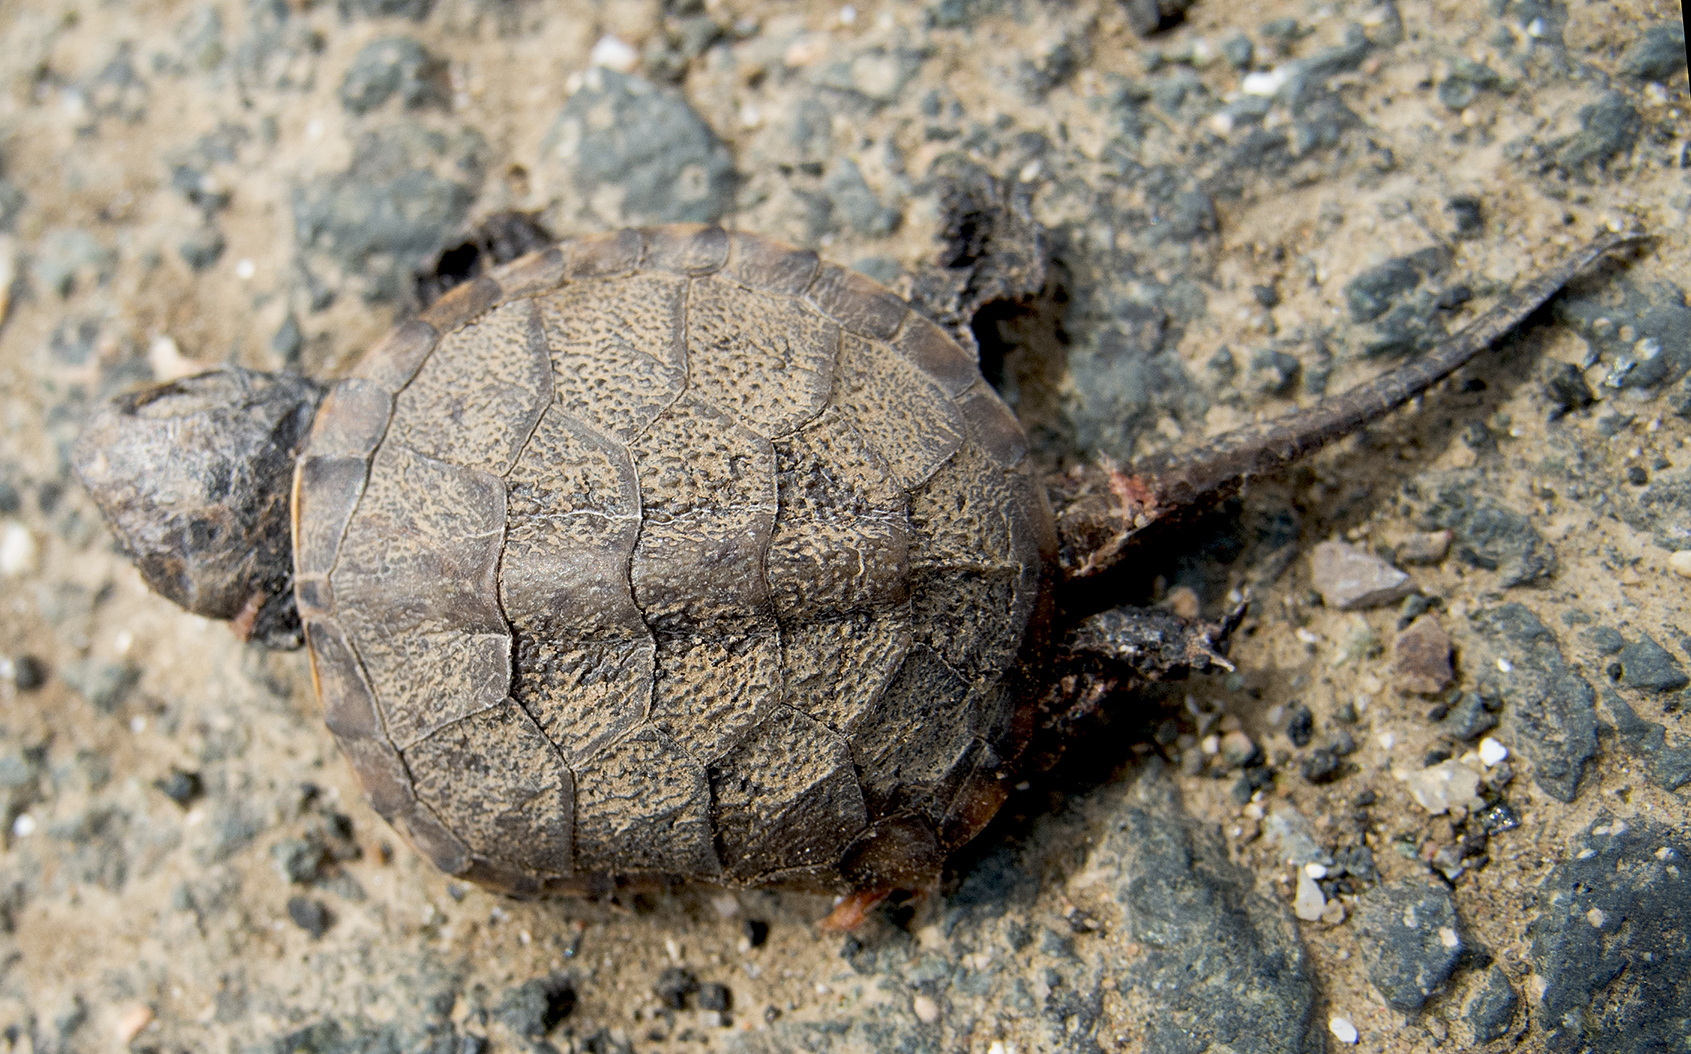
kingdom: Animalia
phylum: Chordata
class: Testudines
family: Emydidae
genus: Emys
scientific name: Emys orbicularis
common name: European pond turtle
